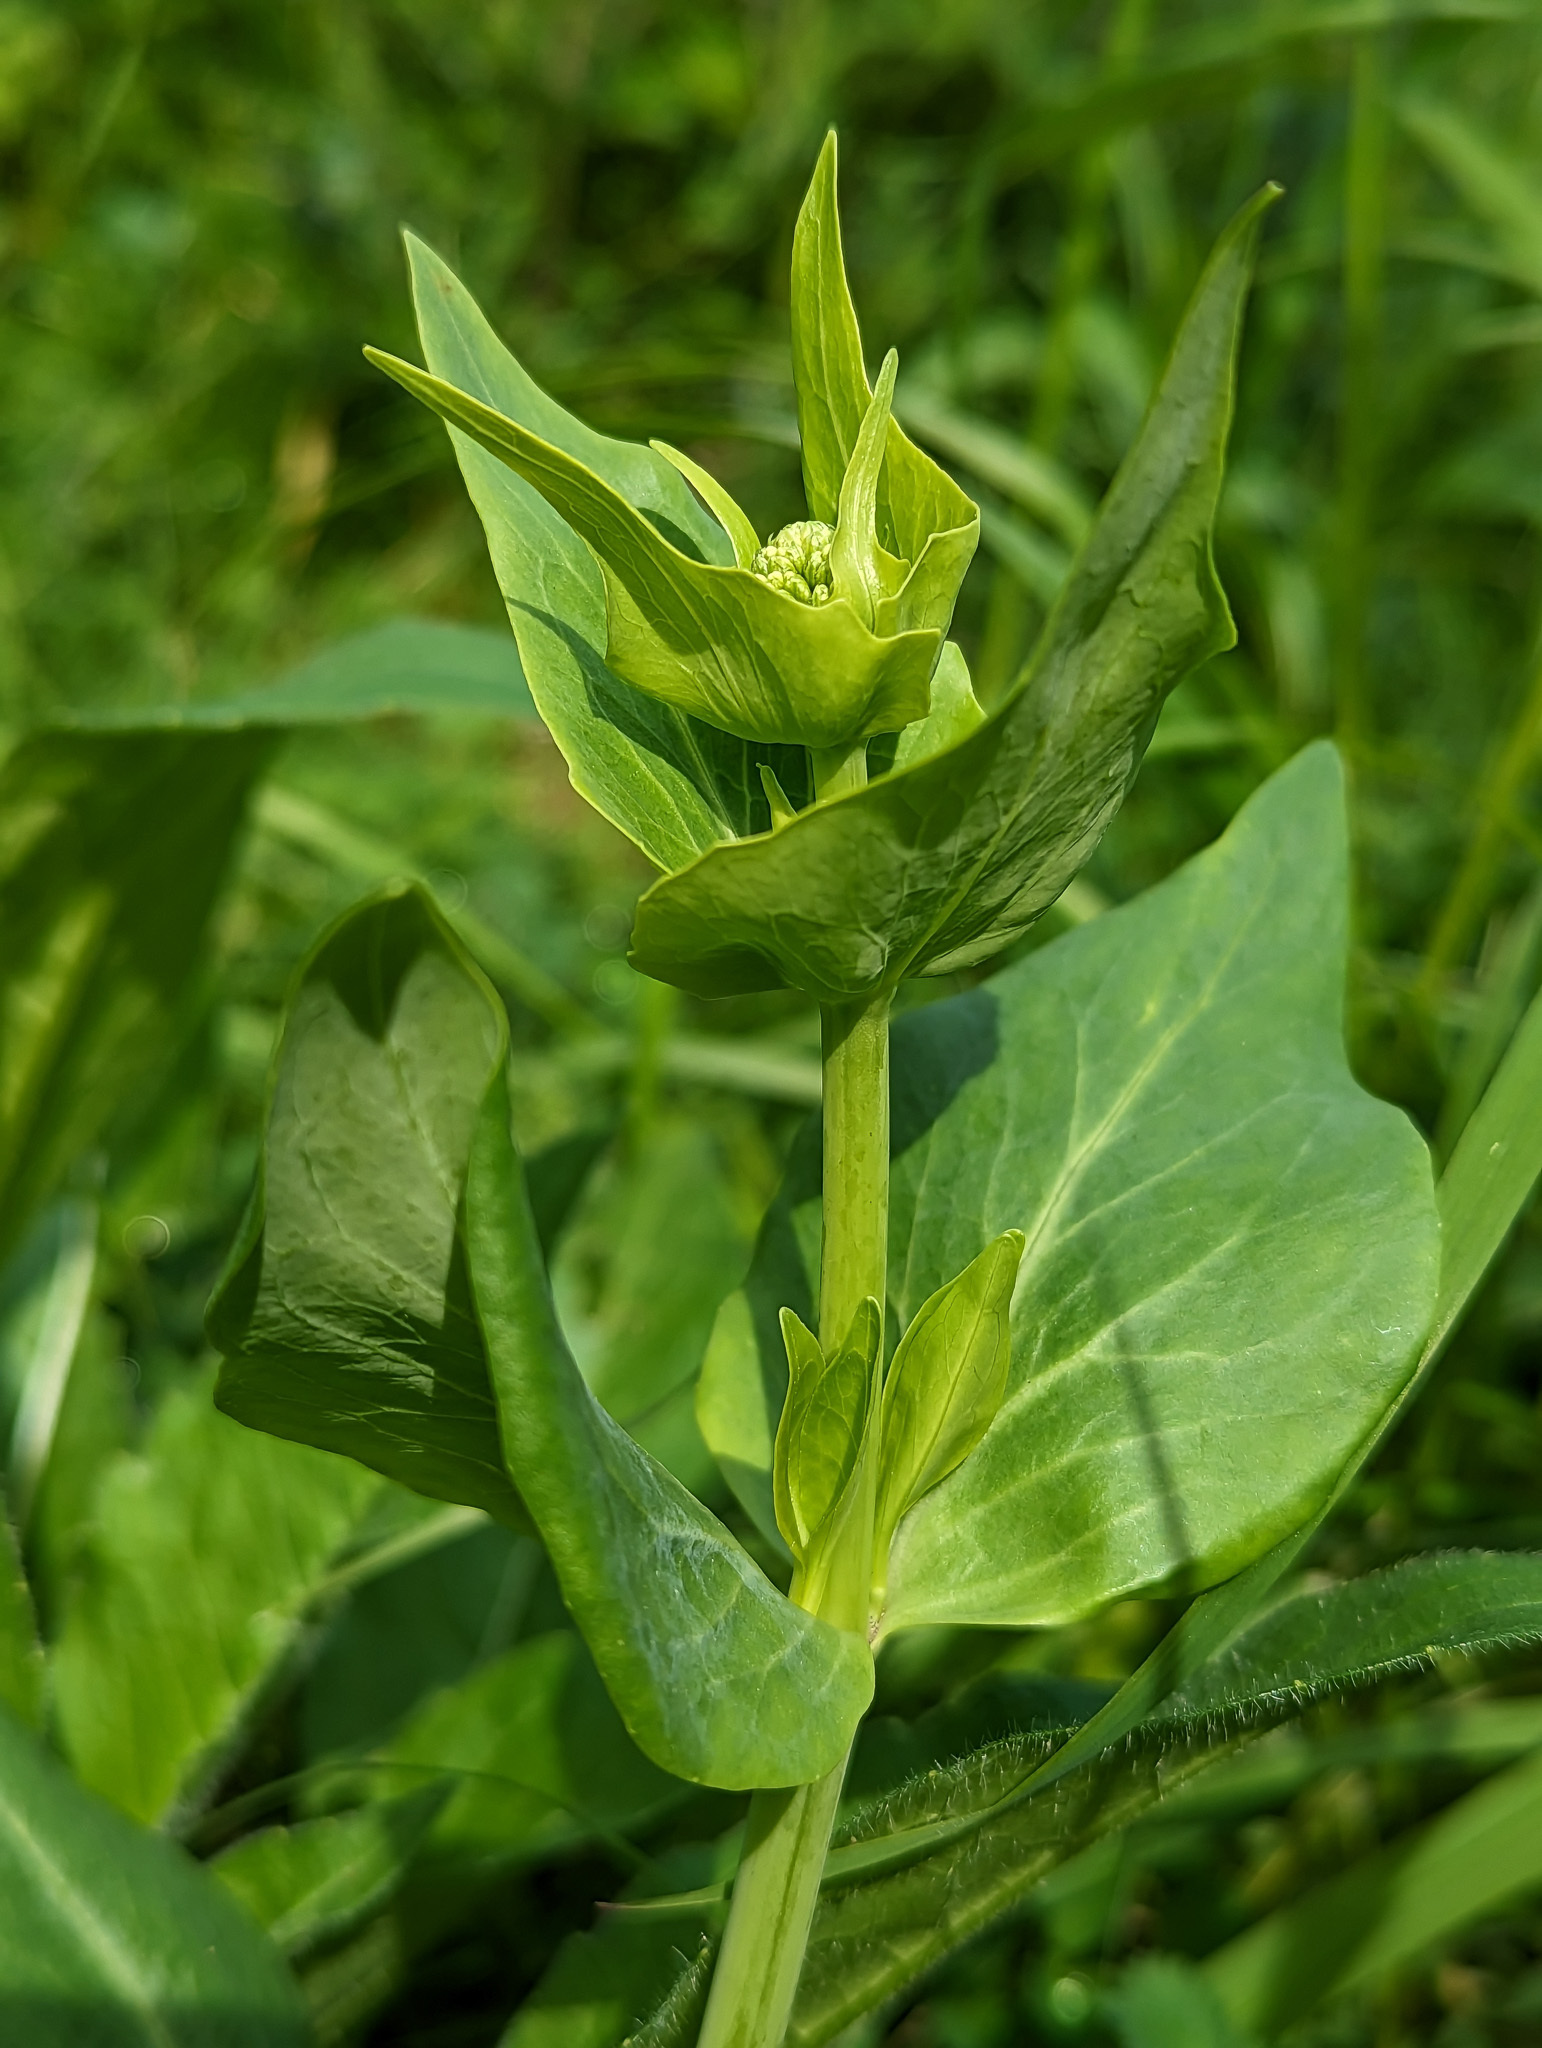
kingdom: Plantae
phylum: Tracheophyta
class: Magnoliopsida
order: Dipsacales
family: Caprifoliaceae
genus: Centranthus
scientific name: Centranthus ruber
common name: Red valerian
